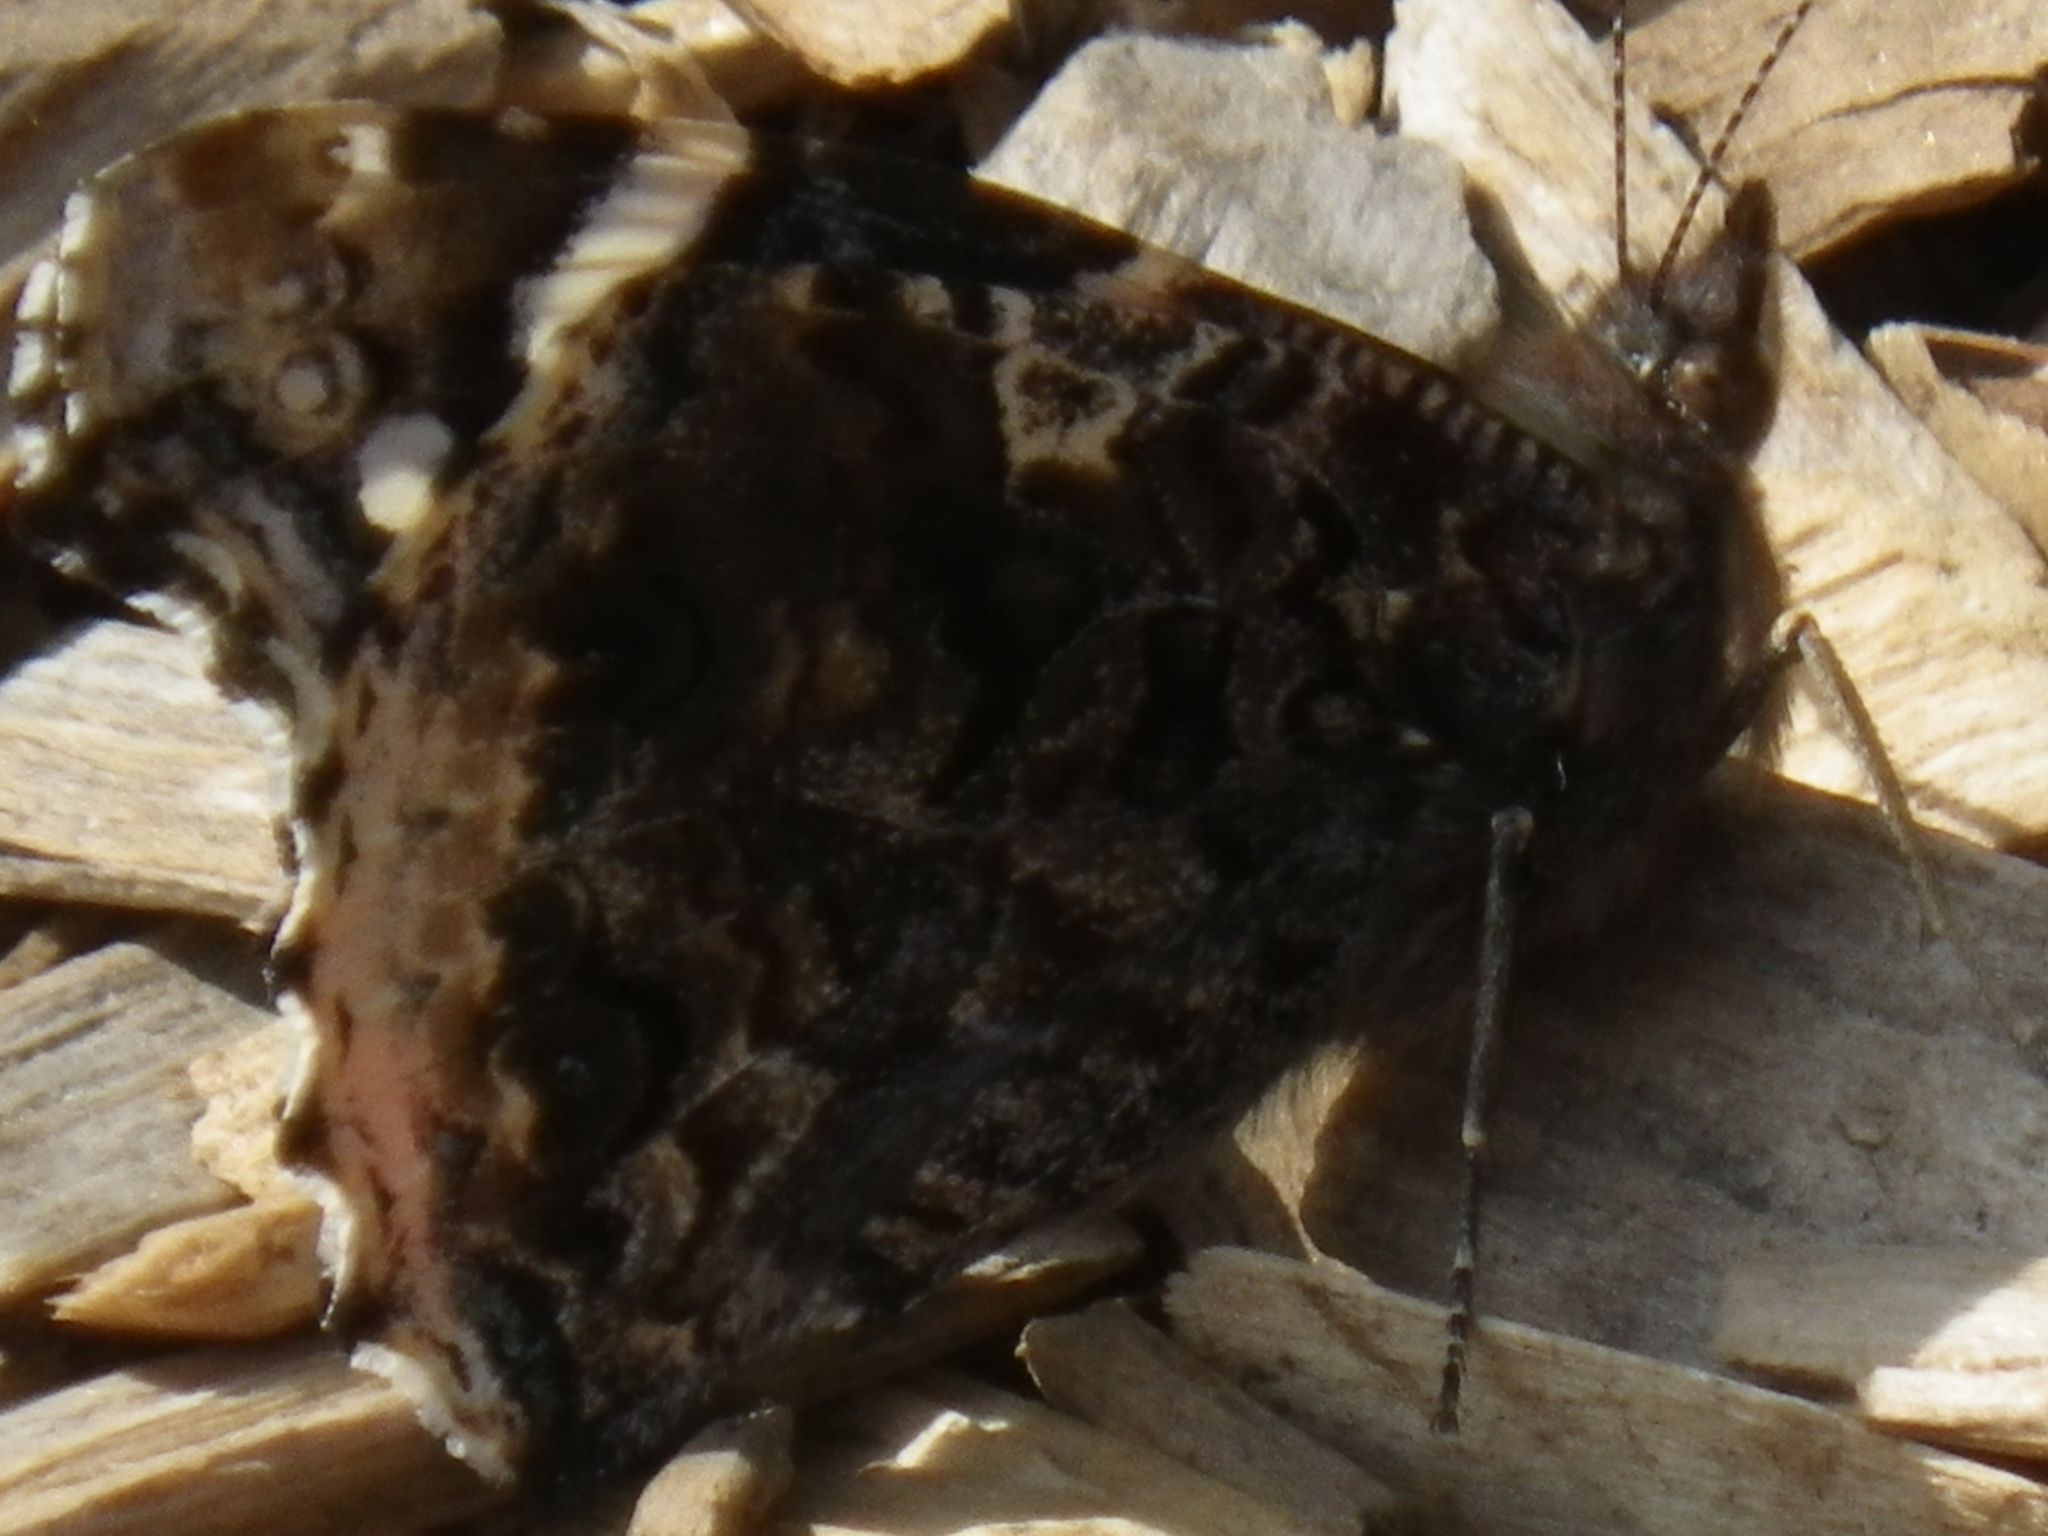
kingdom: Animalia
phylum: Arthropoda
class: Insecta
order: Lepidoptera
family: Nymphalidae
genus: Vanessa
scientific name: Vanessa atalanta
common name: Red admiral
